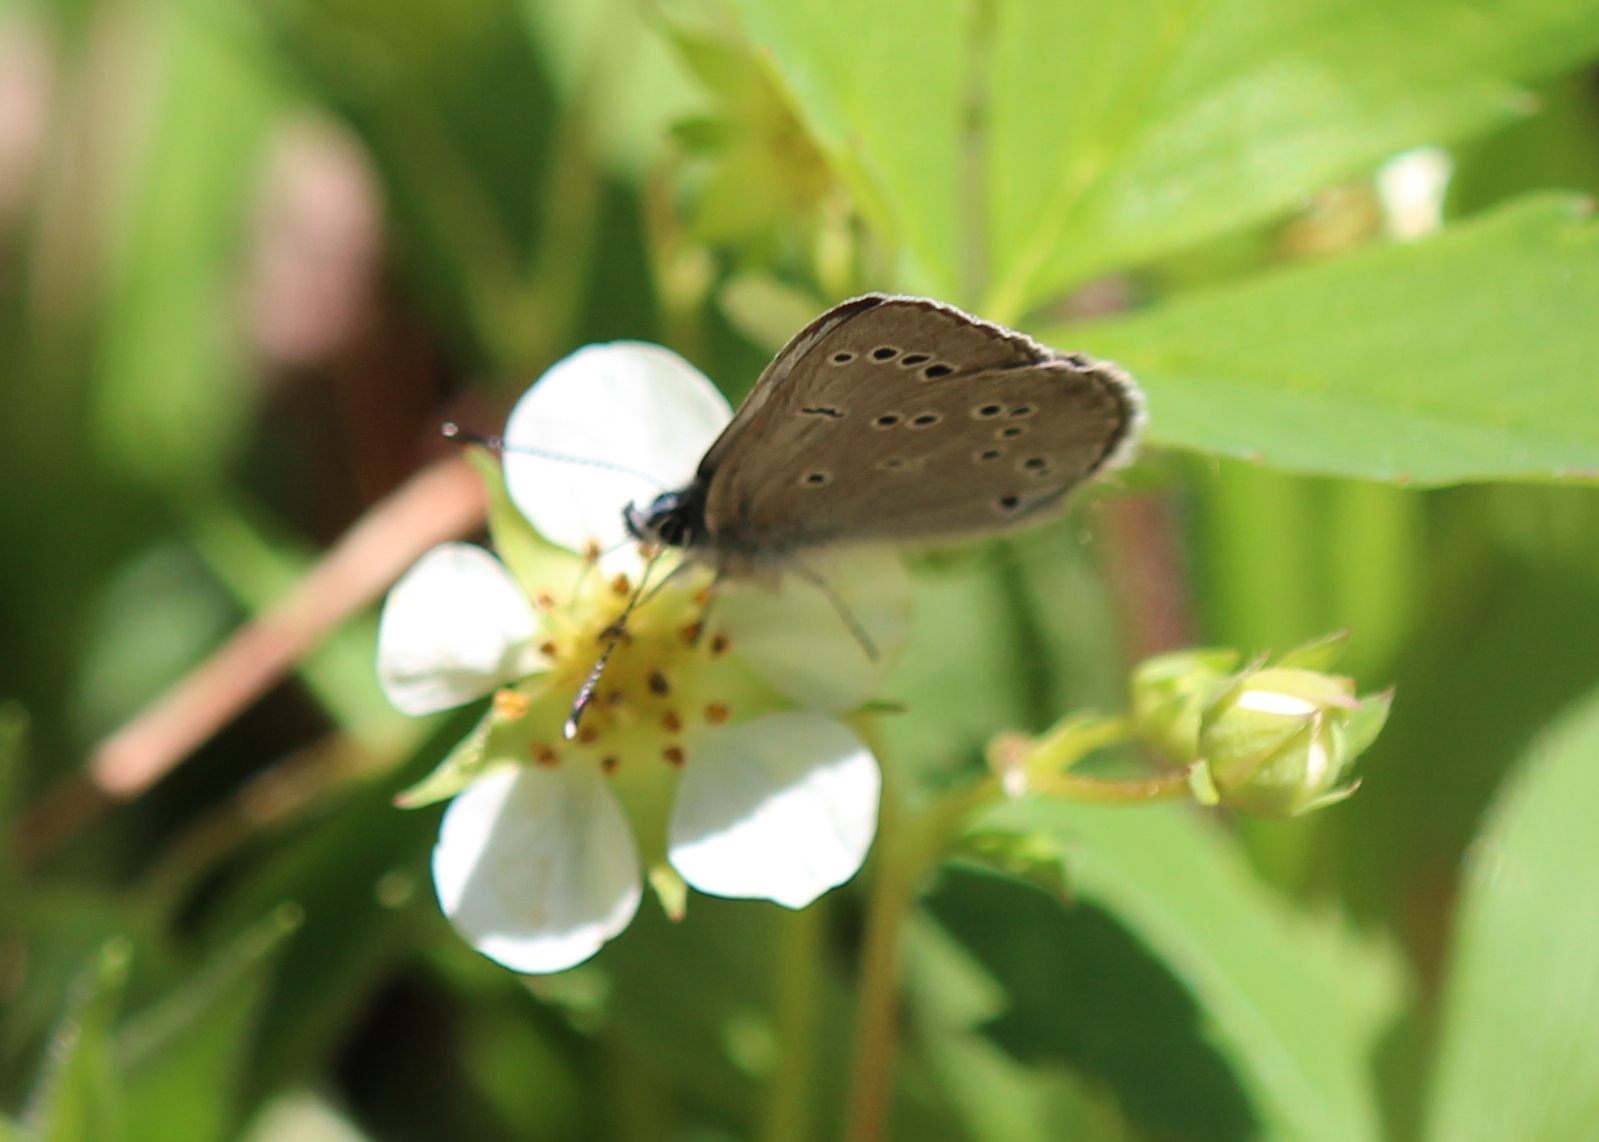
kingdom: Animalia
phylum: Arthropoda
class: Insecta
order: Lepidoptera
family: Lycaenidae
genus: Glaucopsyche
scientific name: Glaucopsyche lygdamus
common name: Silvery blue
